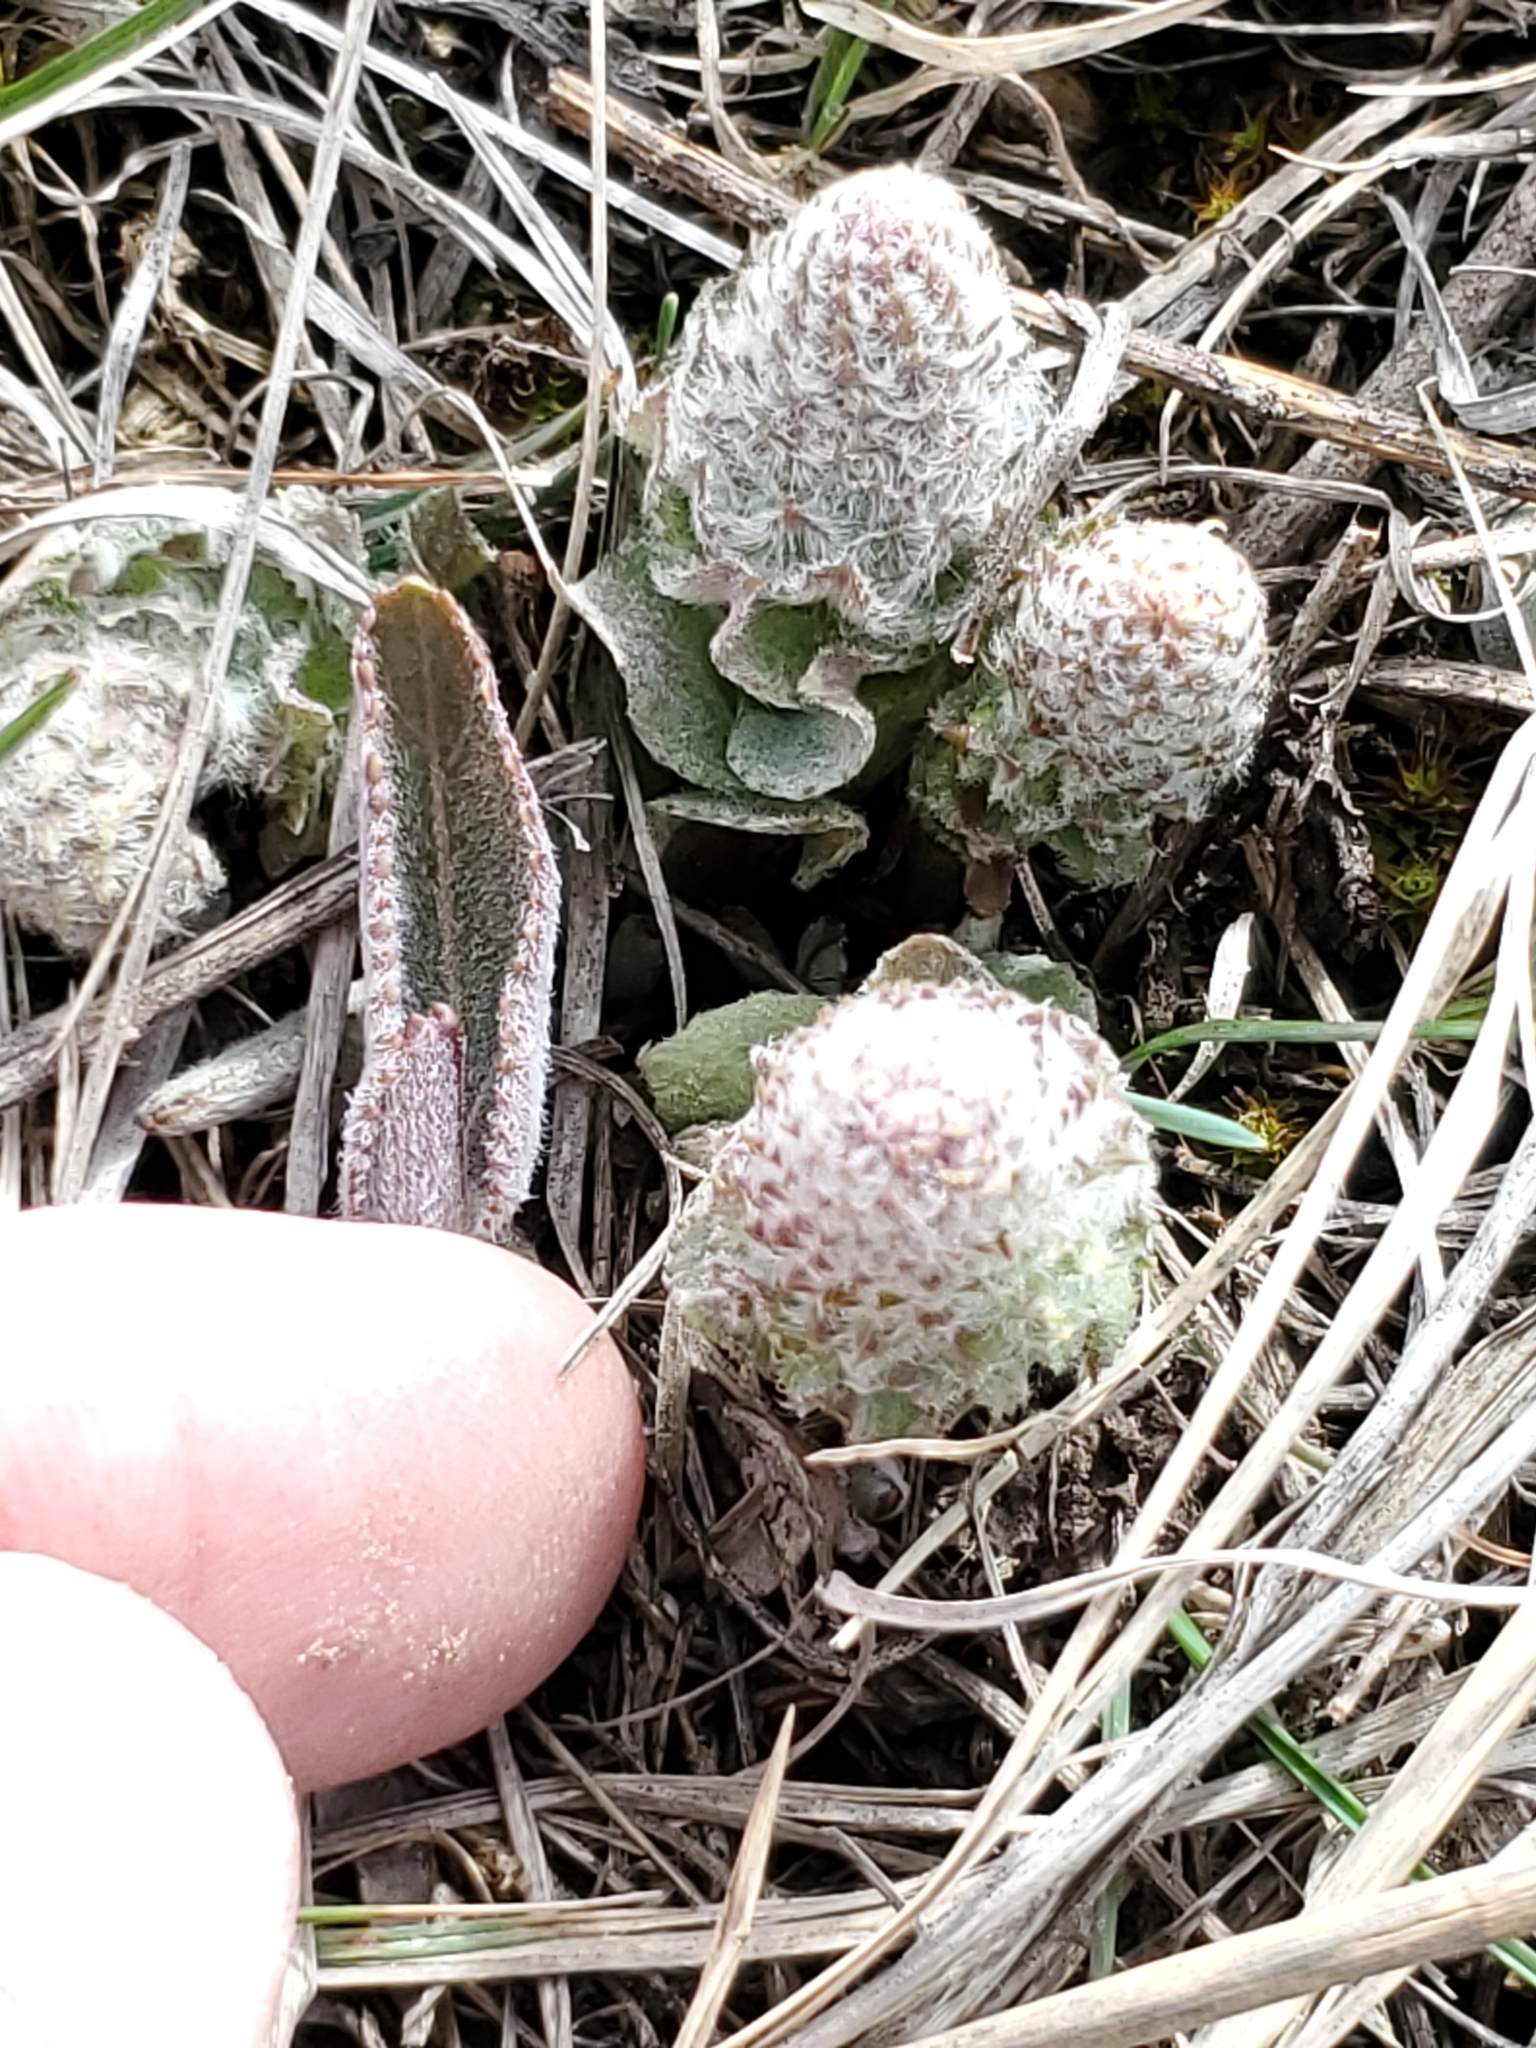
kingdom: Plantae
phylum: Tracheophyta
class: Magnoliopsida
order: Lamiales
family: Plantaginaceae
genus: Synthyris
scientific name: Synthyris wyomingensis
